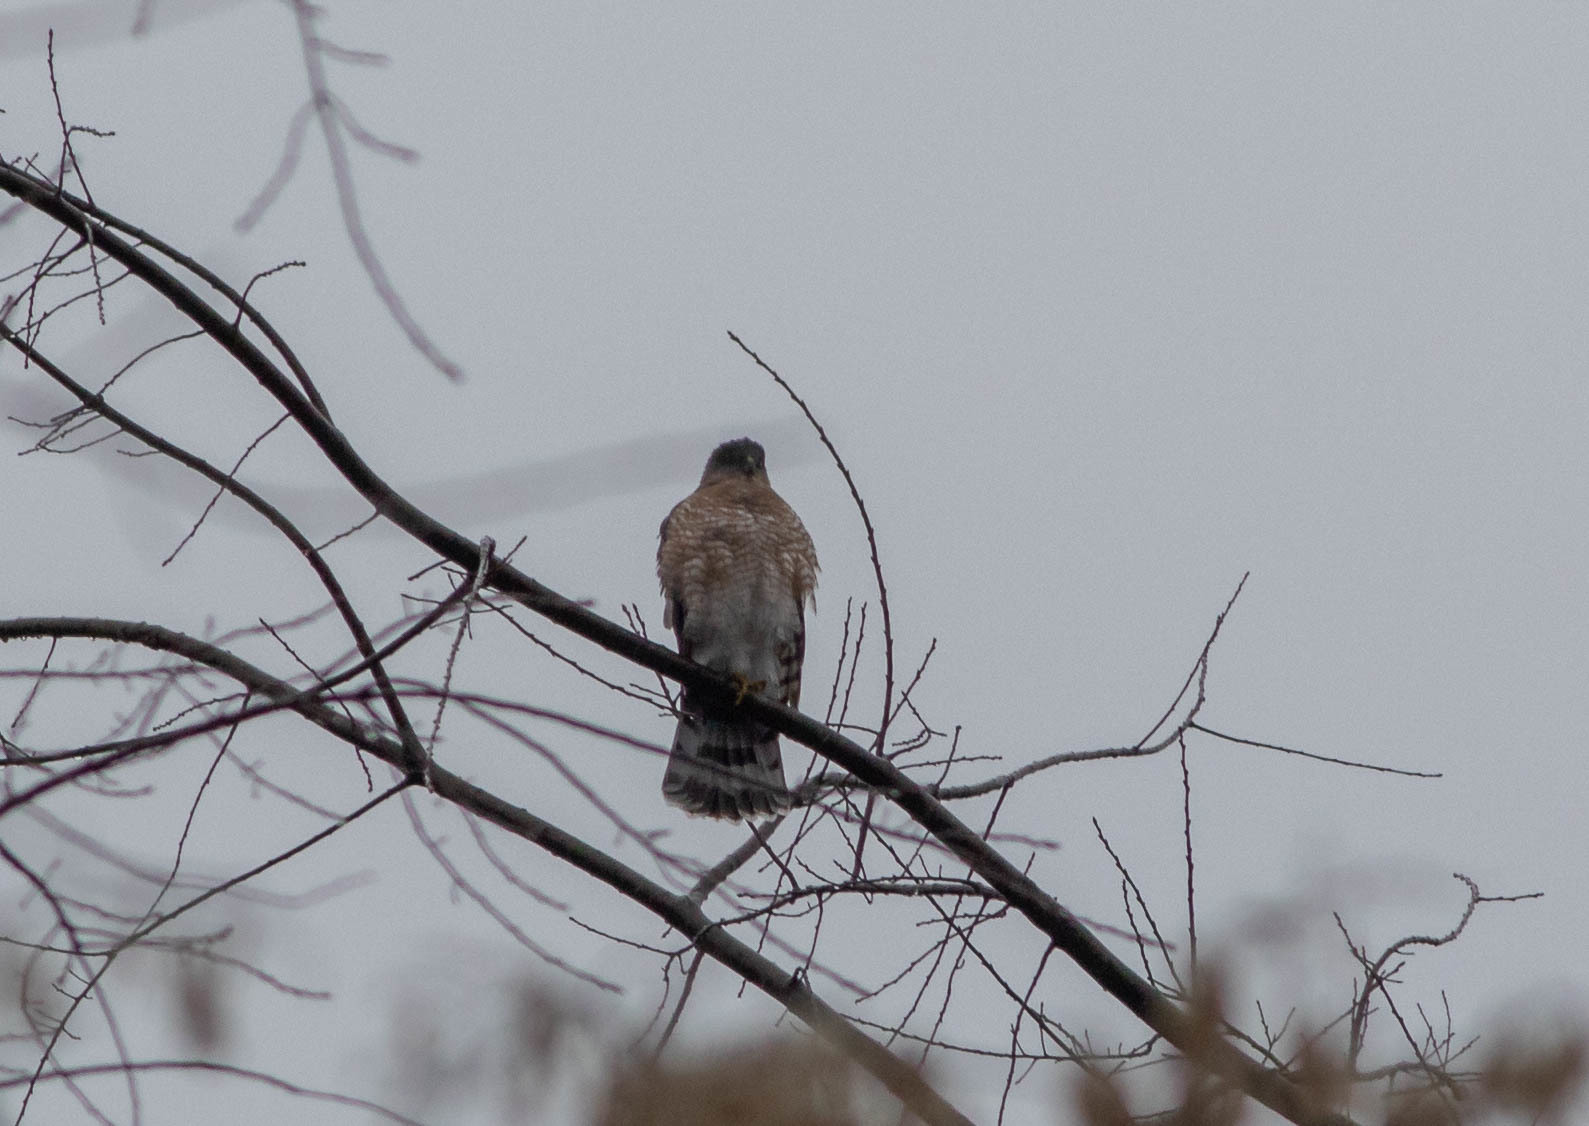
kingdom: Animalia
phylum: Chordata
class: Aves
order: Accipitriformes
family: Accipitridae
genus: Accipiter
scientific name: Accipiter cooperii
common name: Cooper's hawk
